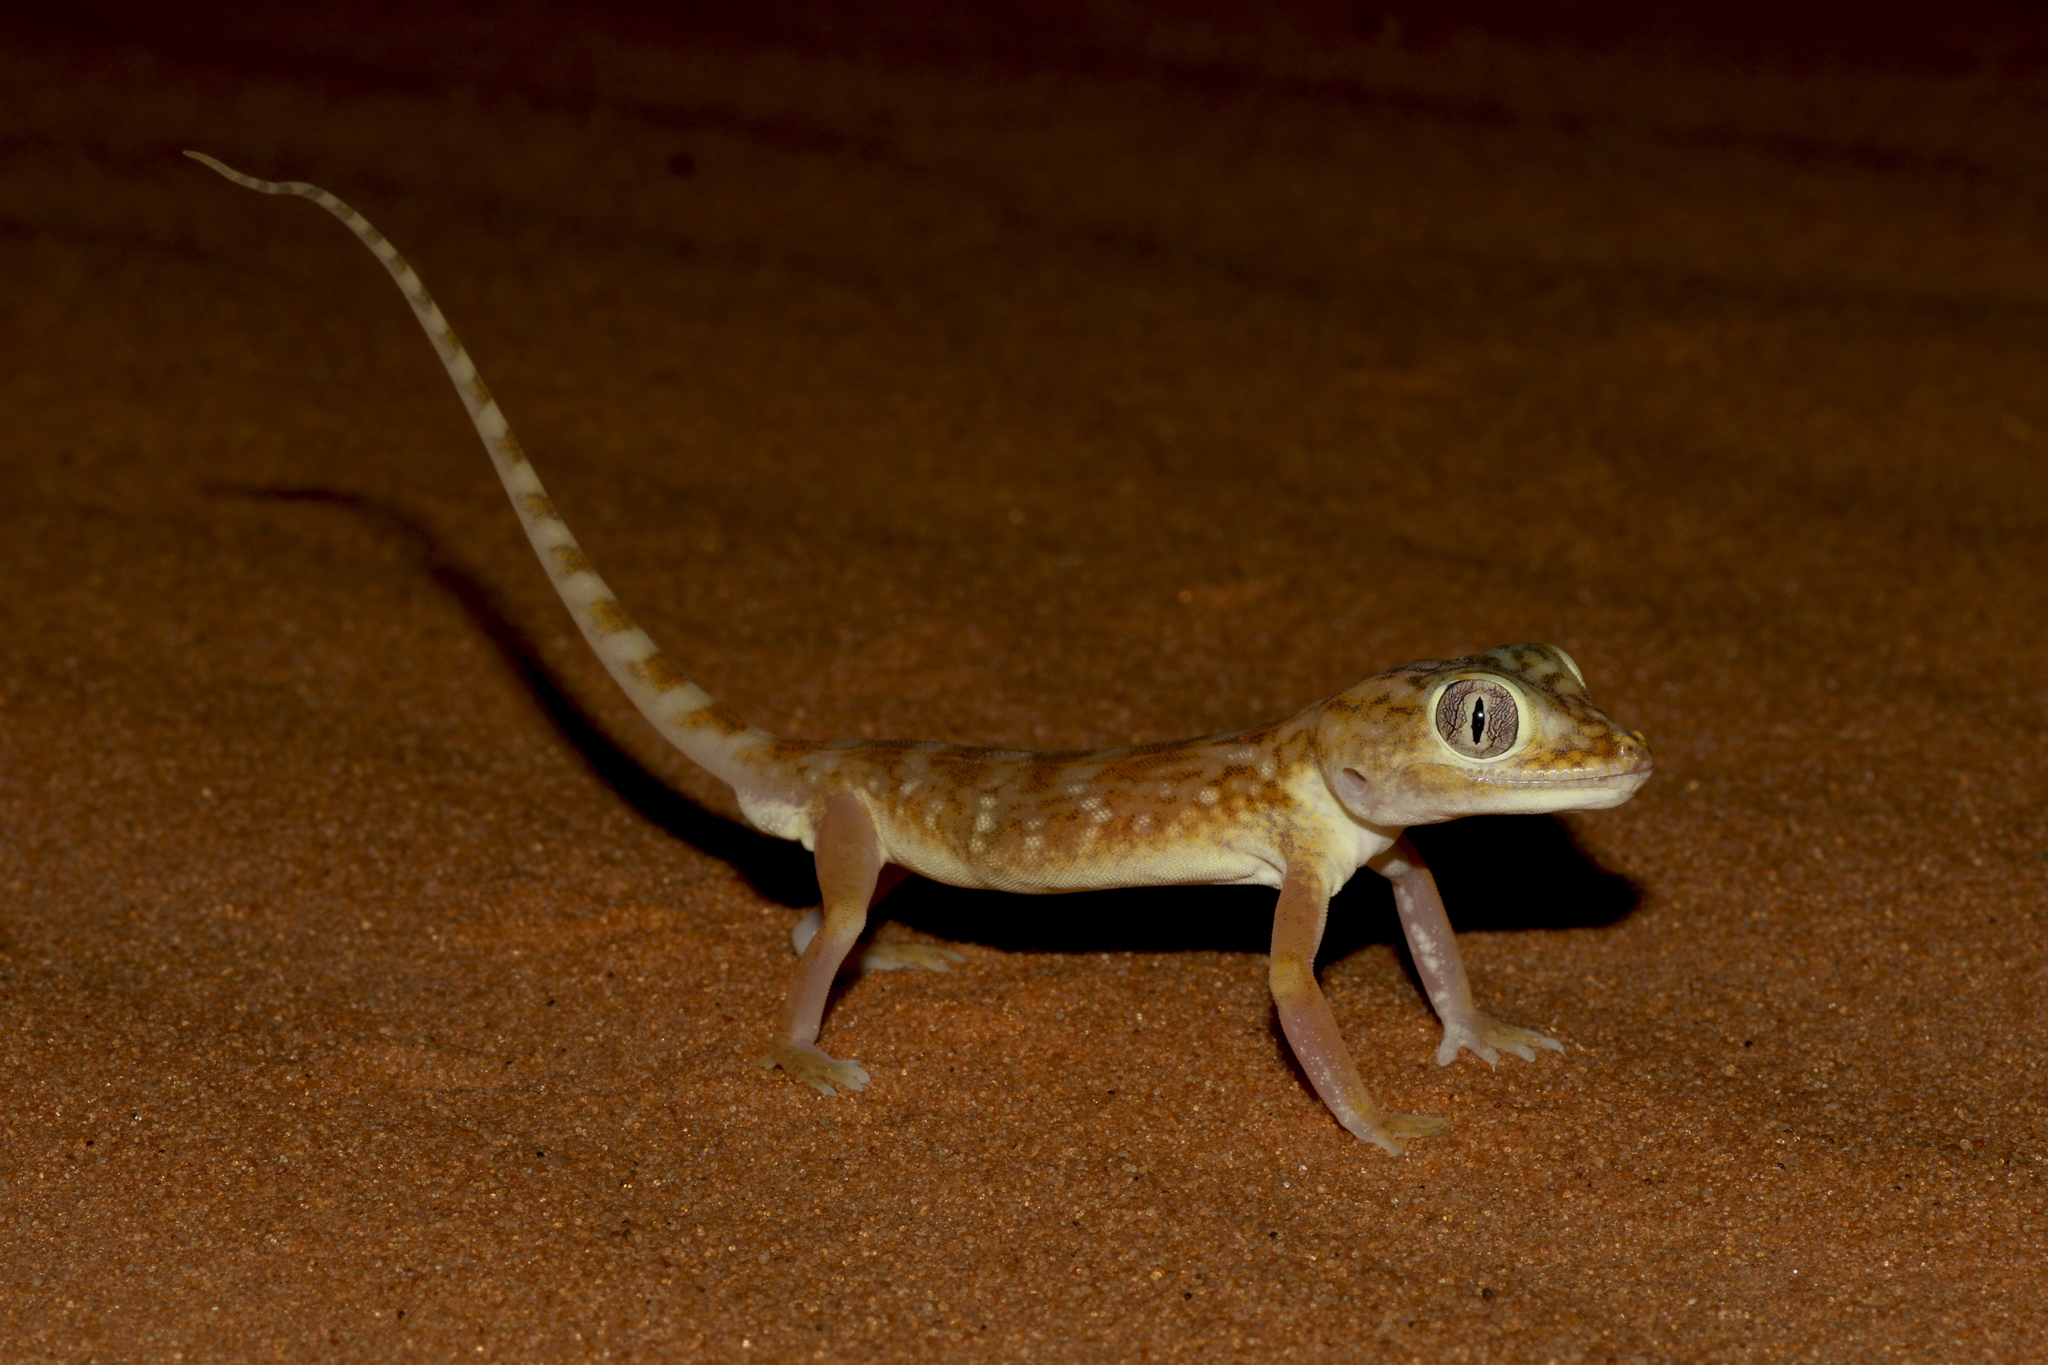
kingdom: Animalia
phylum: Chordata
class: Squamata
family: Gekkonidae
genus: Stenodactylus
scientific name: Stenodactylus doriae
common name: Dune sand gecko
